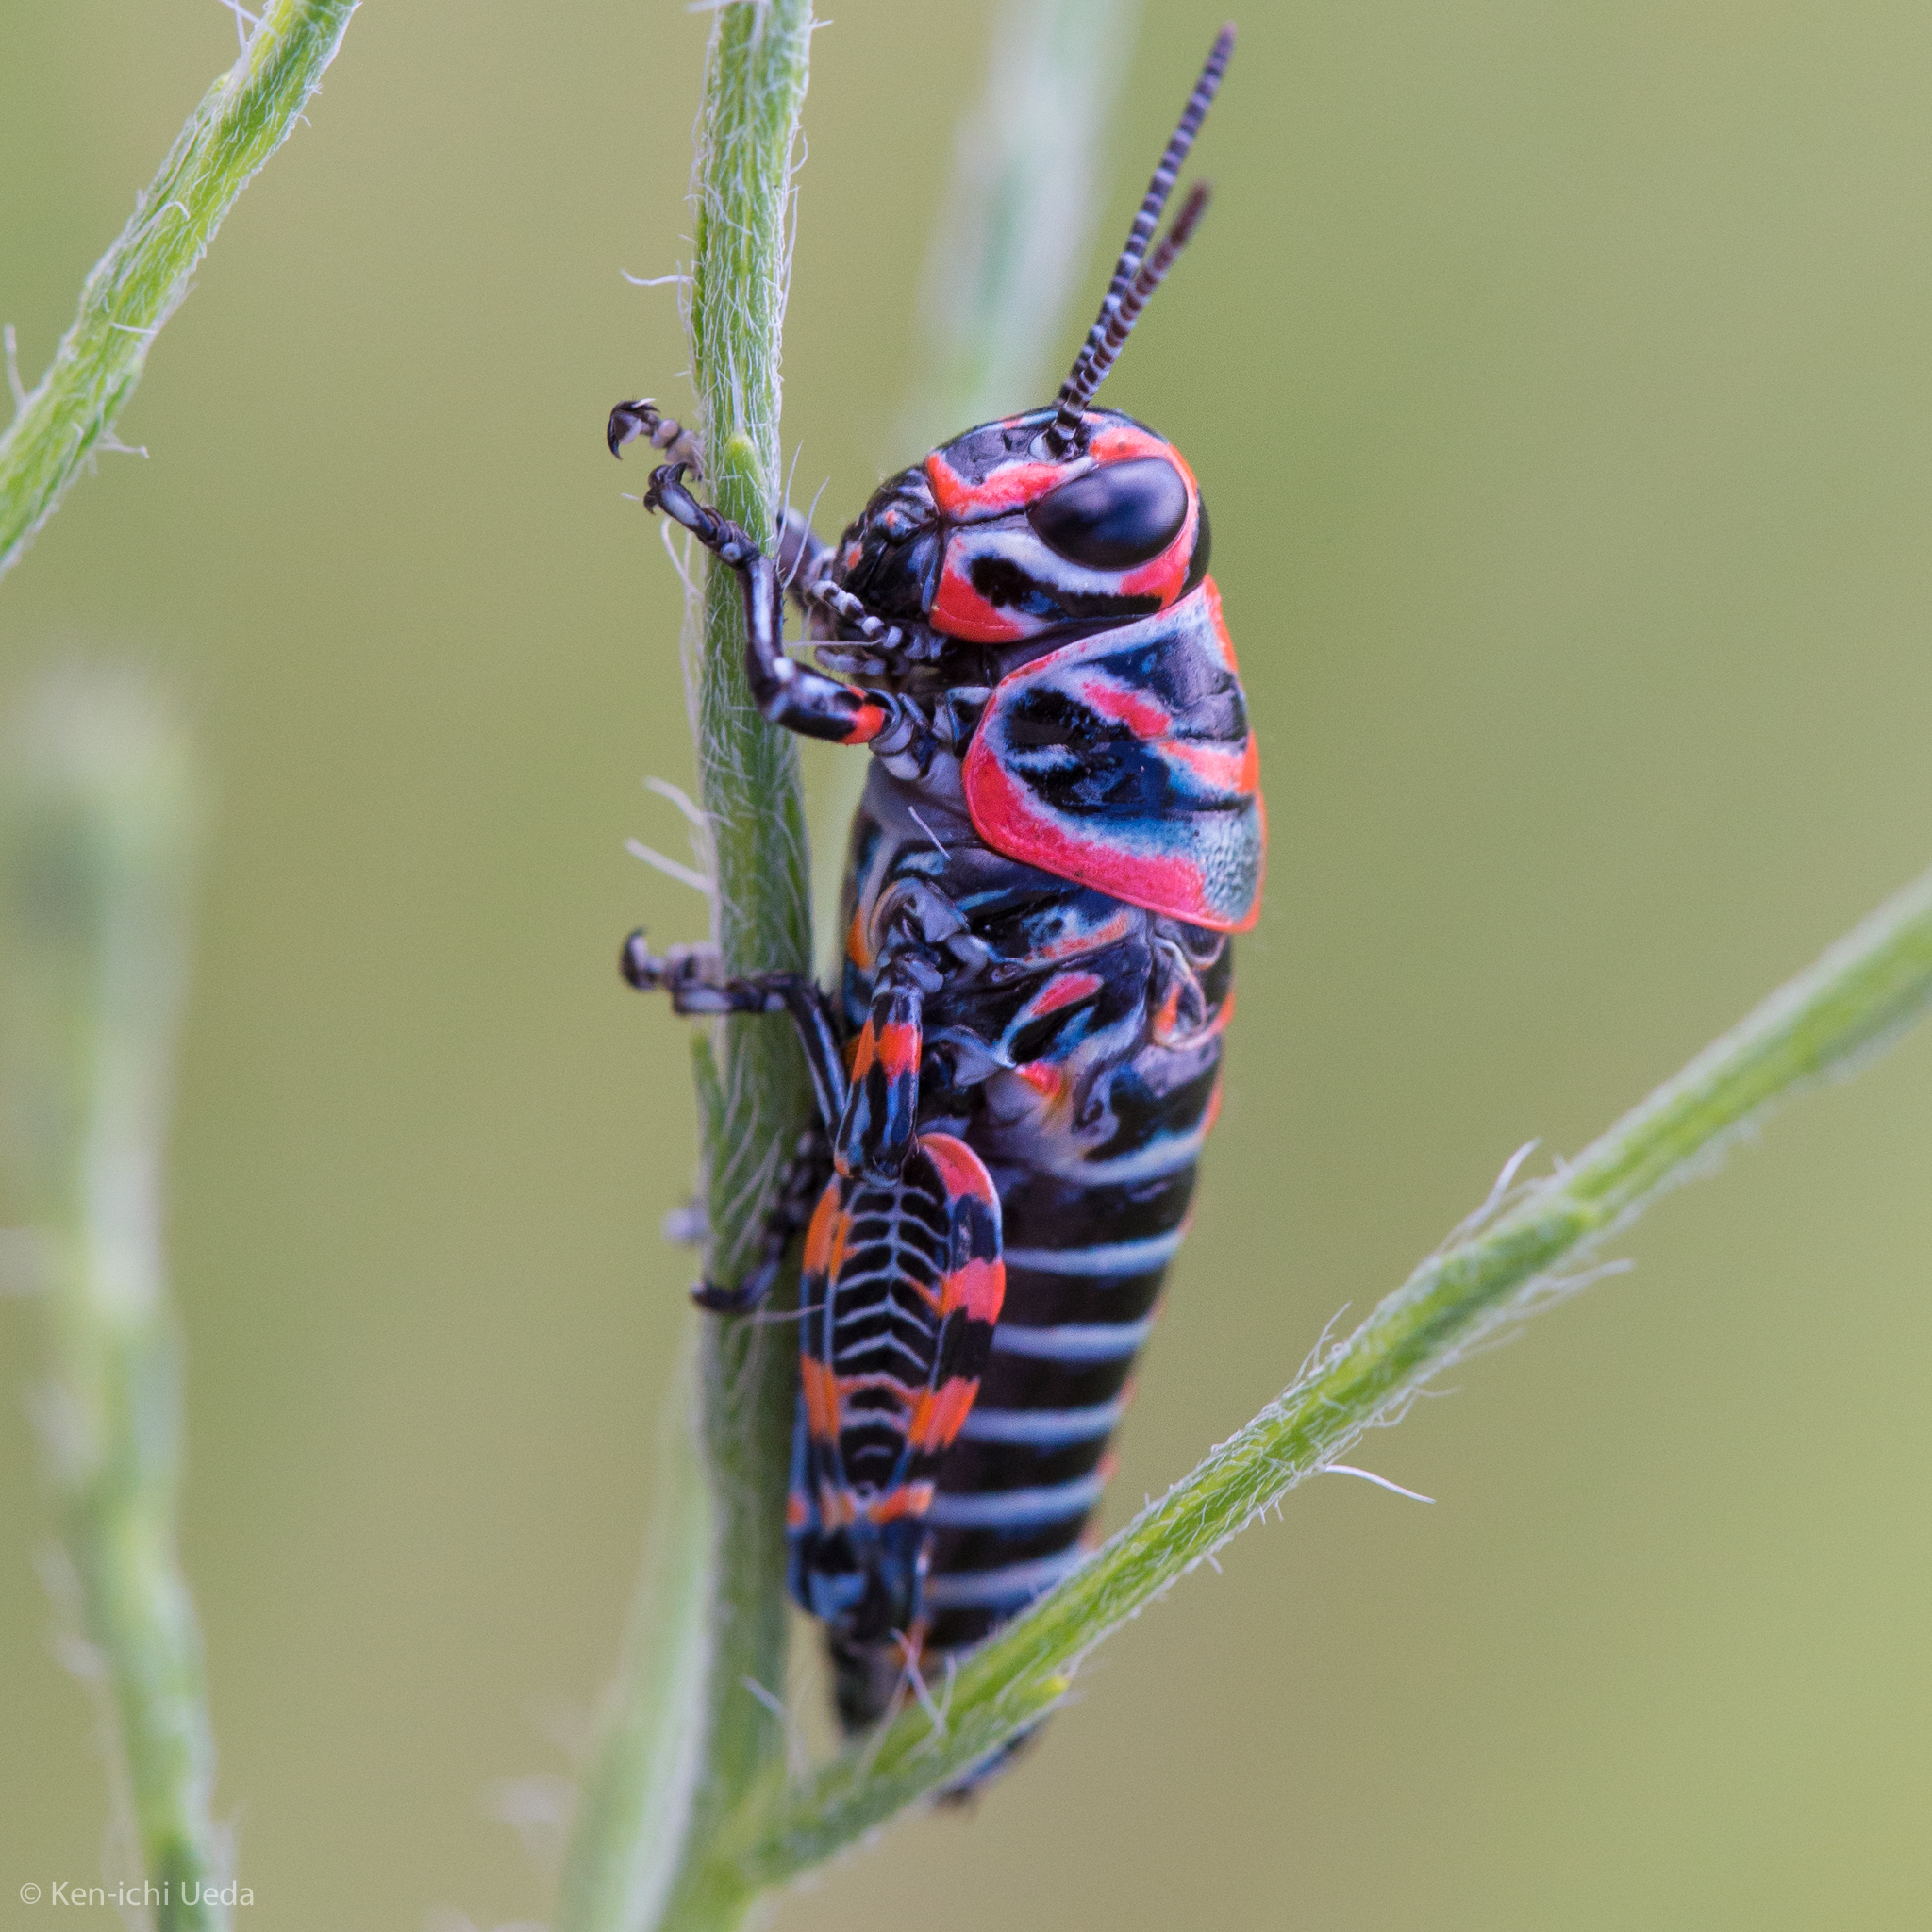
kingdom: Animalia
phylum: Arthropoda
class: Insecta
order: Orthoptera
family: Acrididae
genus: Dactylotum
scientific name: Dactylotum bicolor
